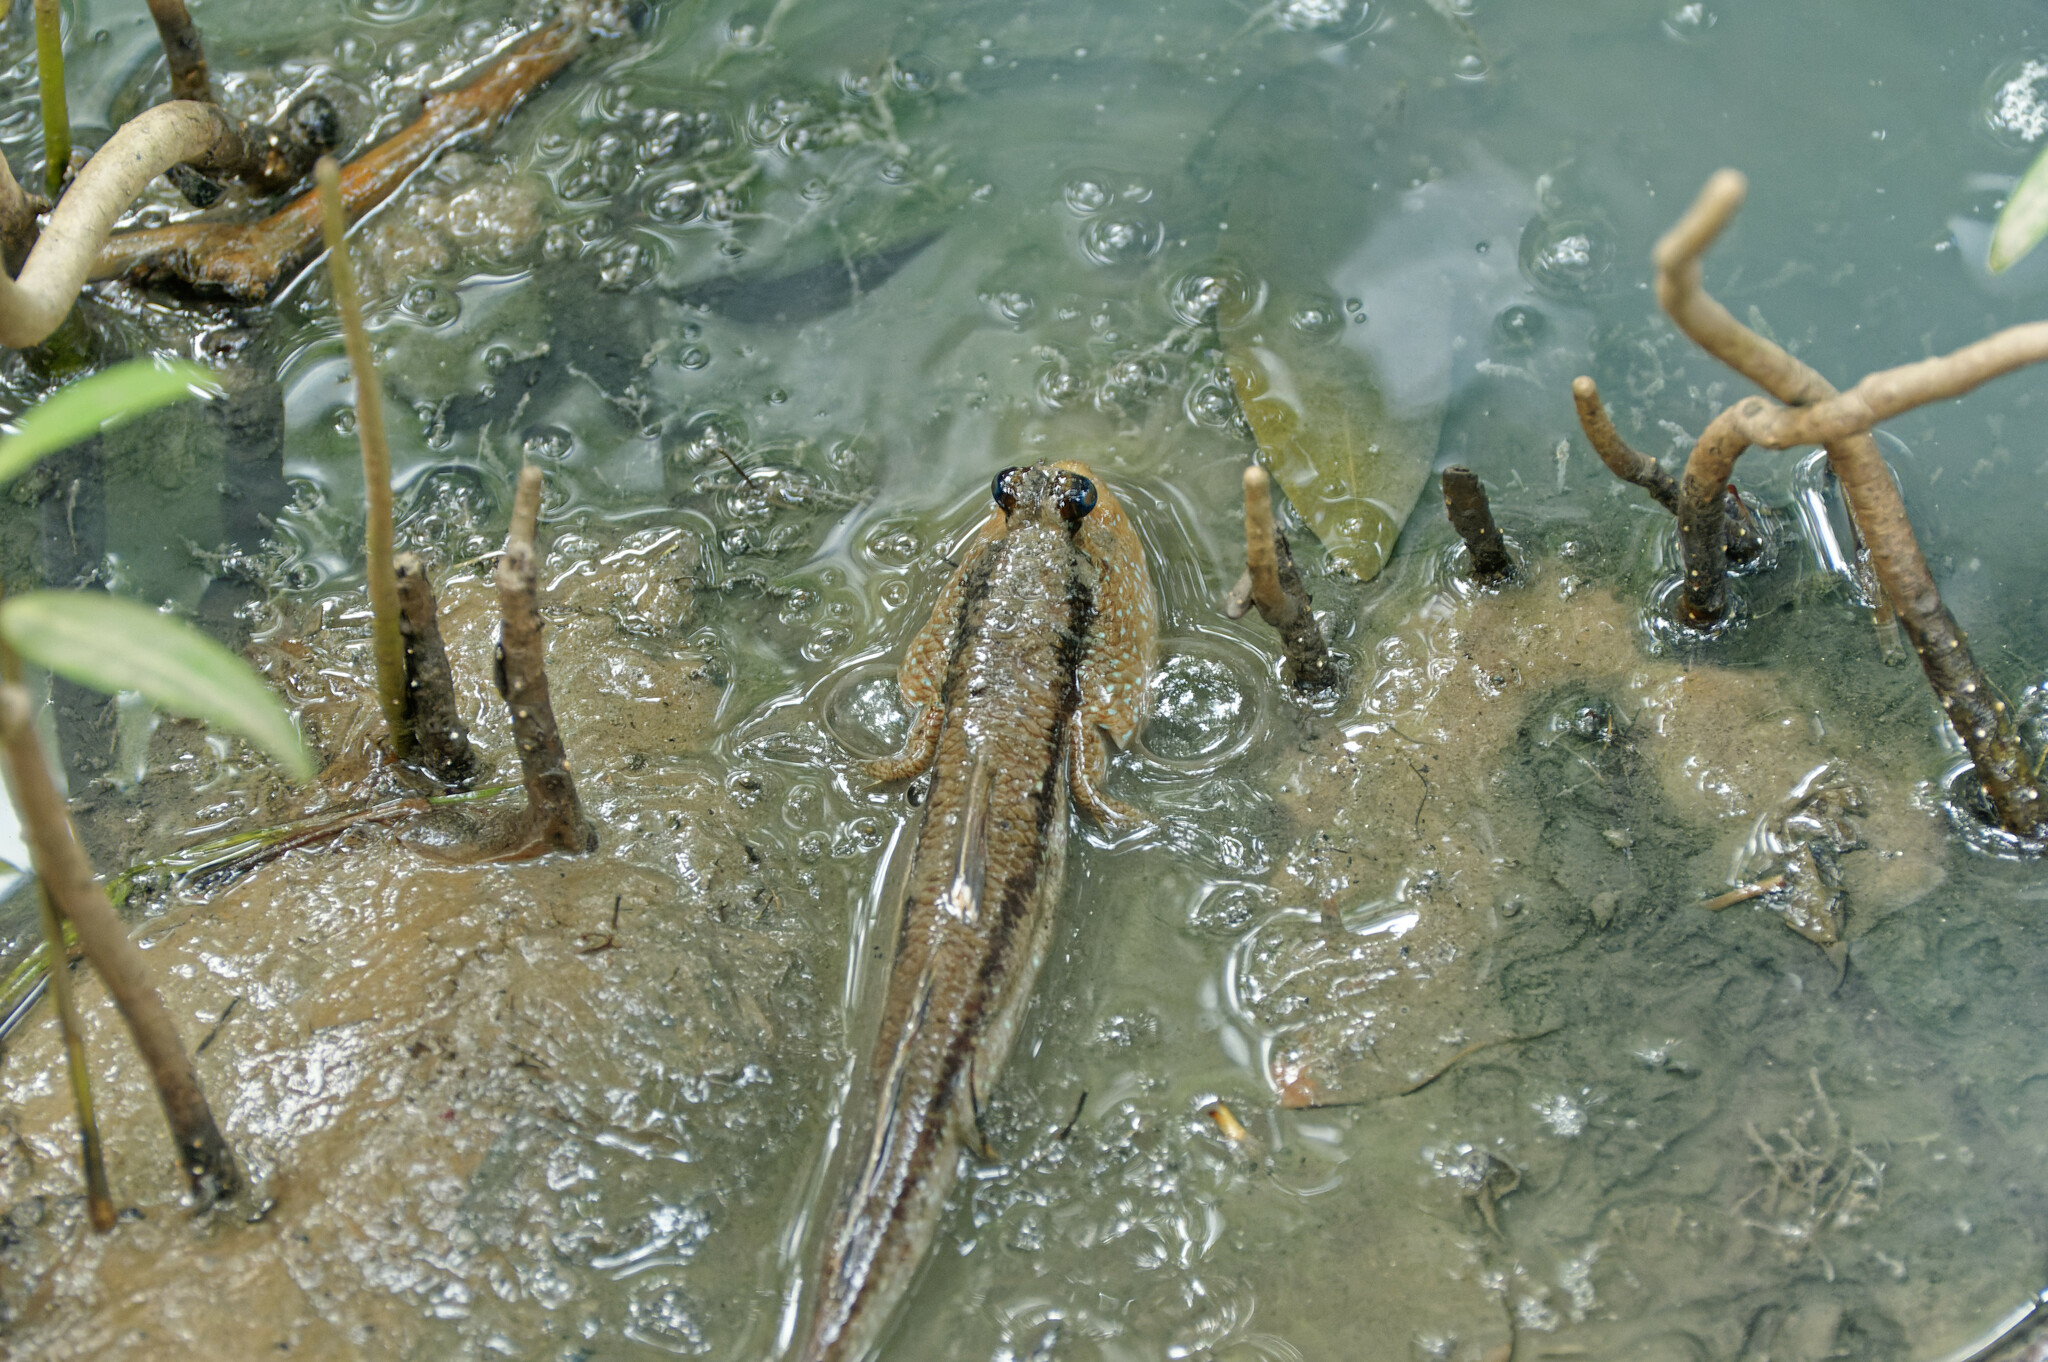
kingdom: Animalia
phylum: Chordata
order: Perciformes
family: Gobiidae
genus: Periophthalmodon
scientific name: Periophthalmodon schlosseri
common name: Giant mudskipper
